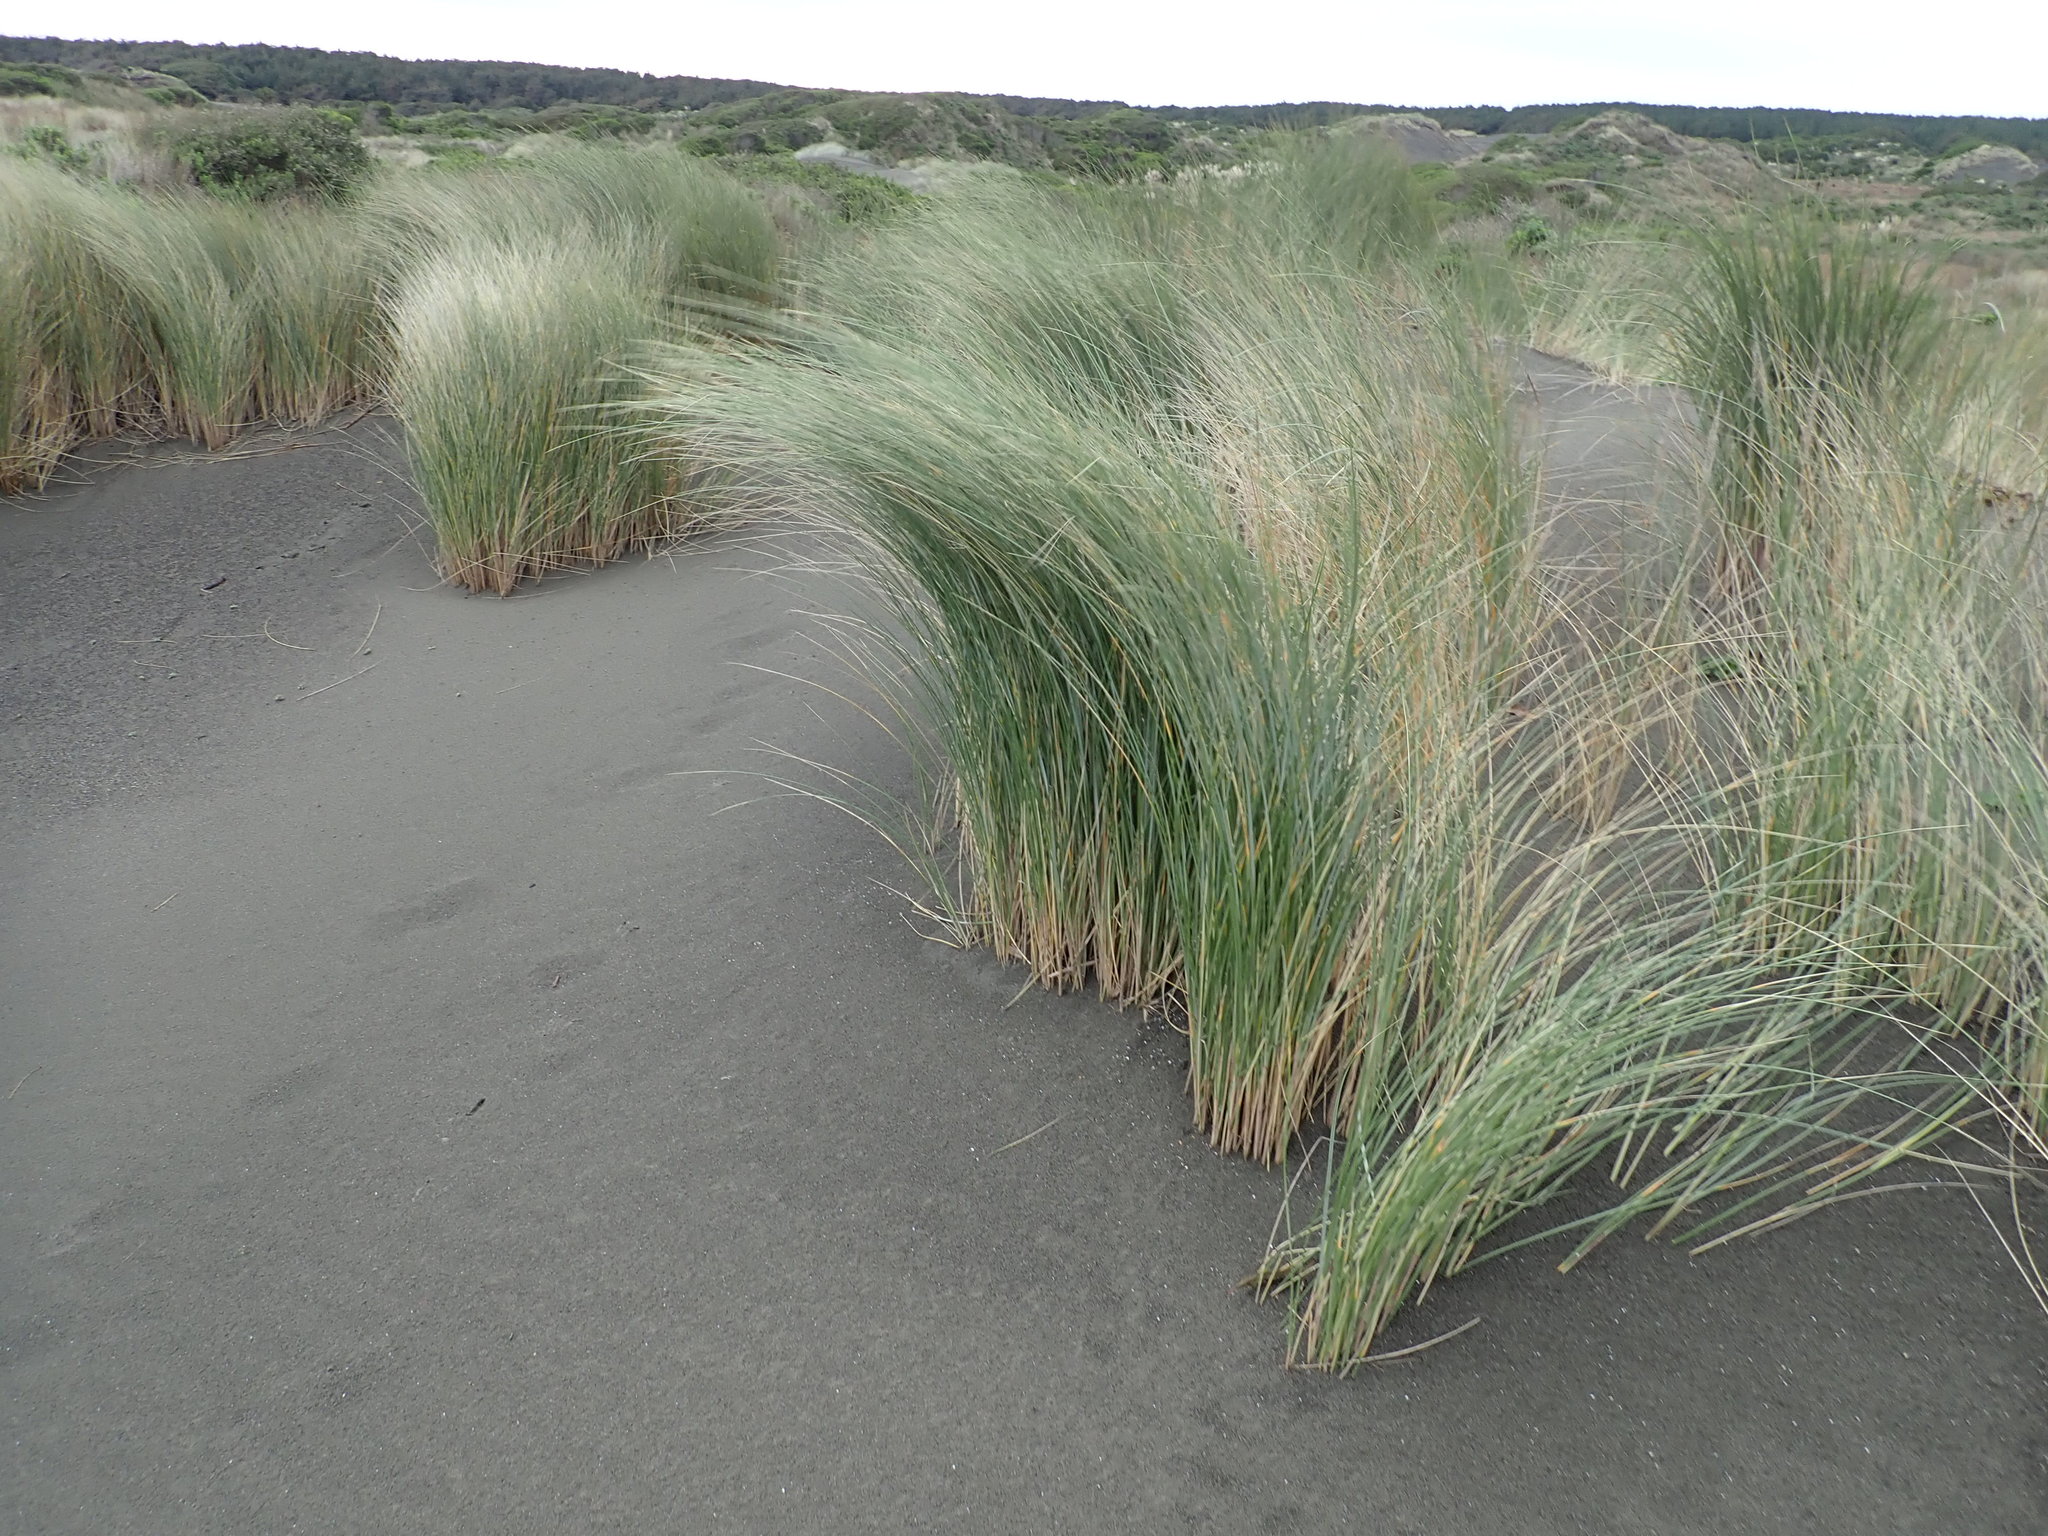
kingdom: Plantae
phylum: Tracheophyta
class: Liliopsida
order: Poales
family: Poaceae
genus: Calamagrostis
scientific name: Calamagrostis arenaria
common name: European beachgrass
